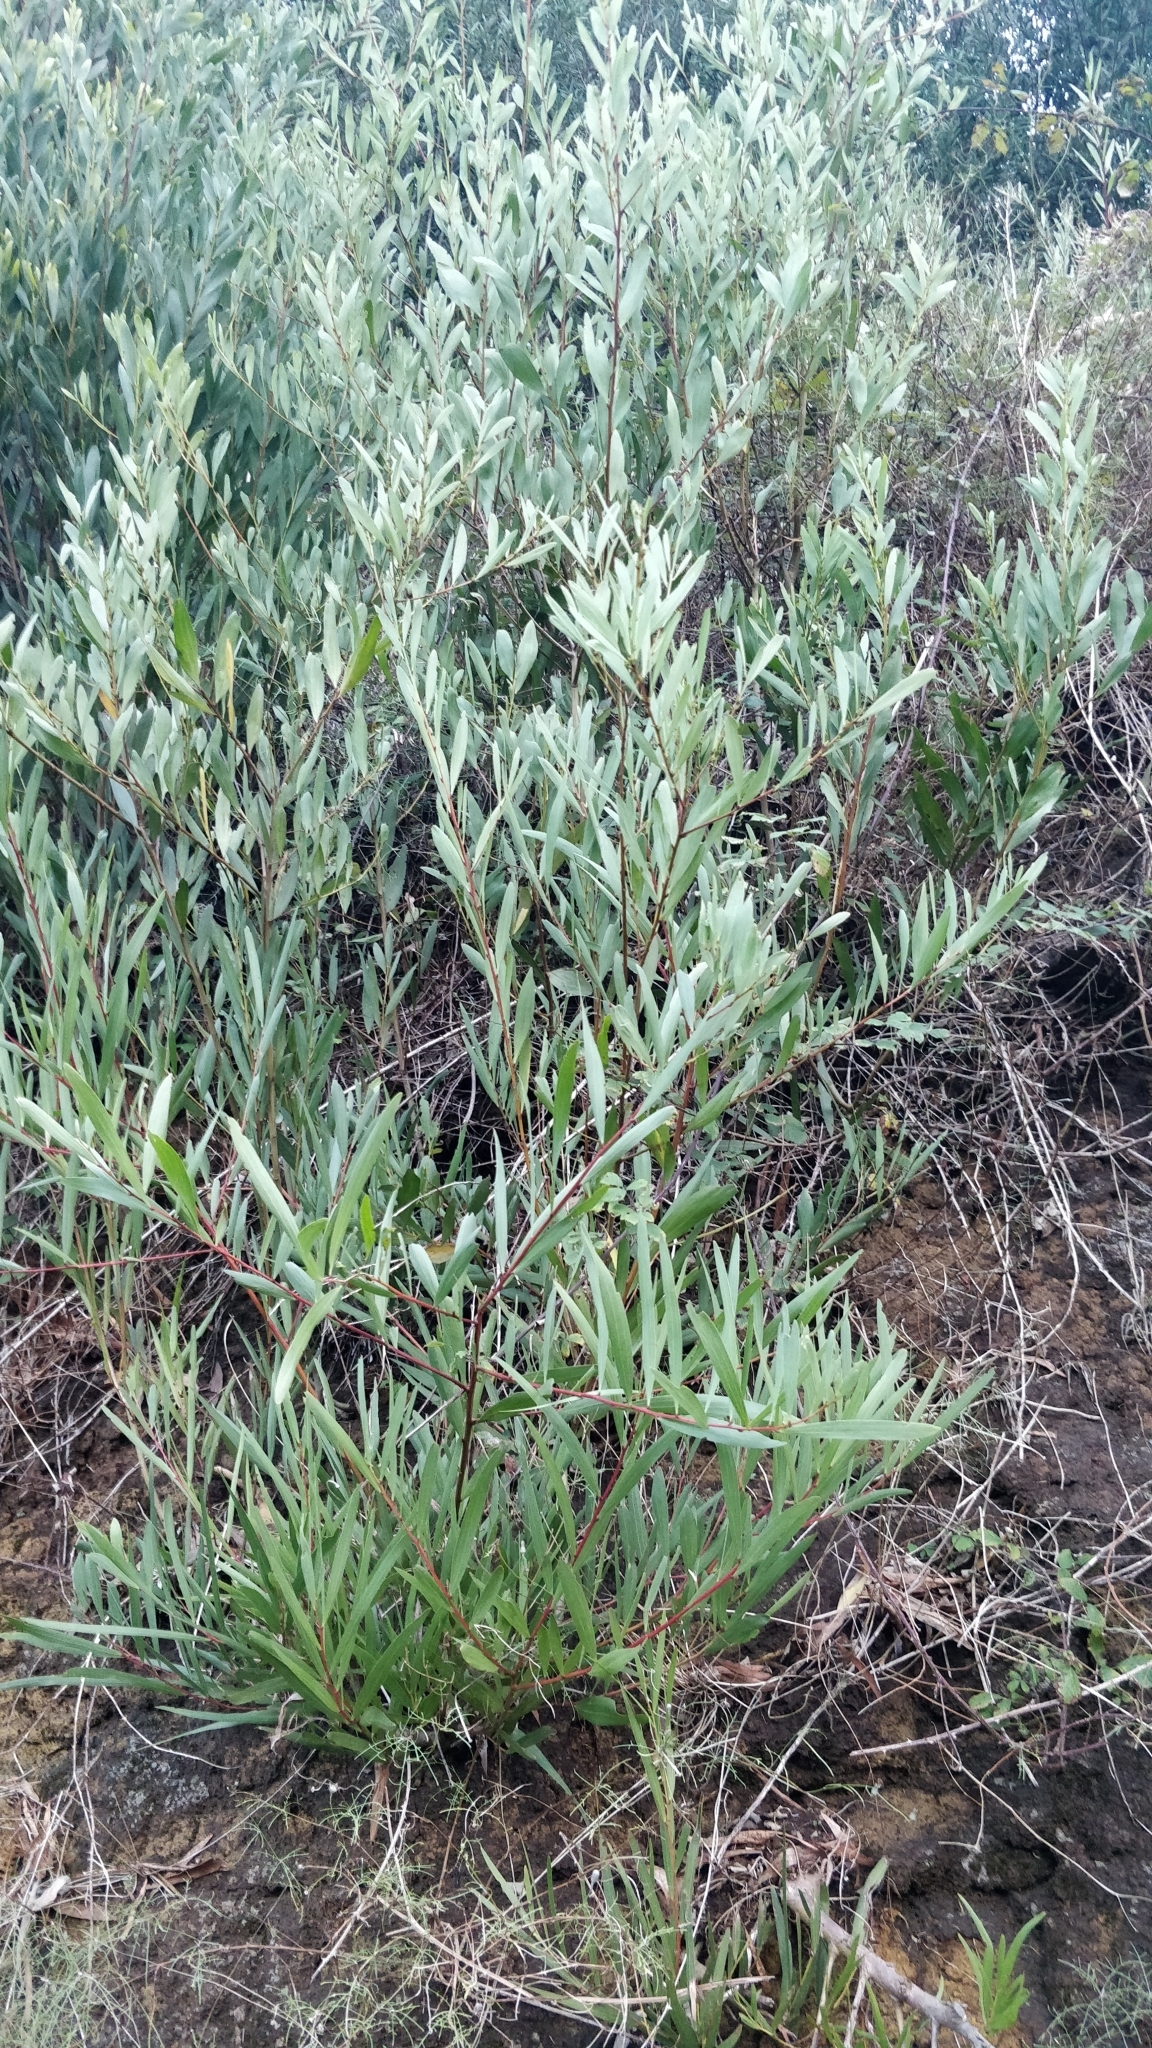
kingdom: Plantae
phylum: Tracheophyta
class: Magnoliopsida
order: Fabales
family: Fabaceae
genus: Acacia
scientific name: Acacia longifolia
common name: Sydney golden wattle
